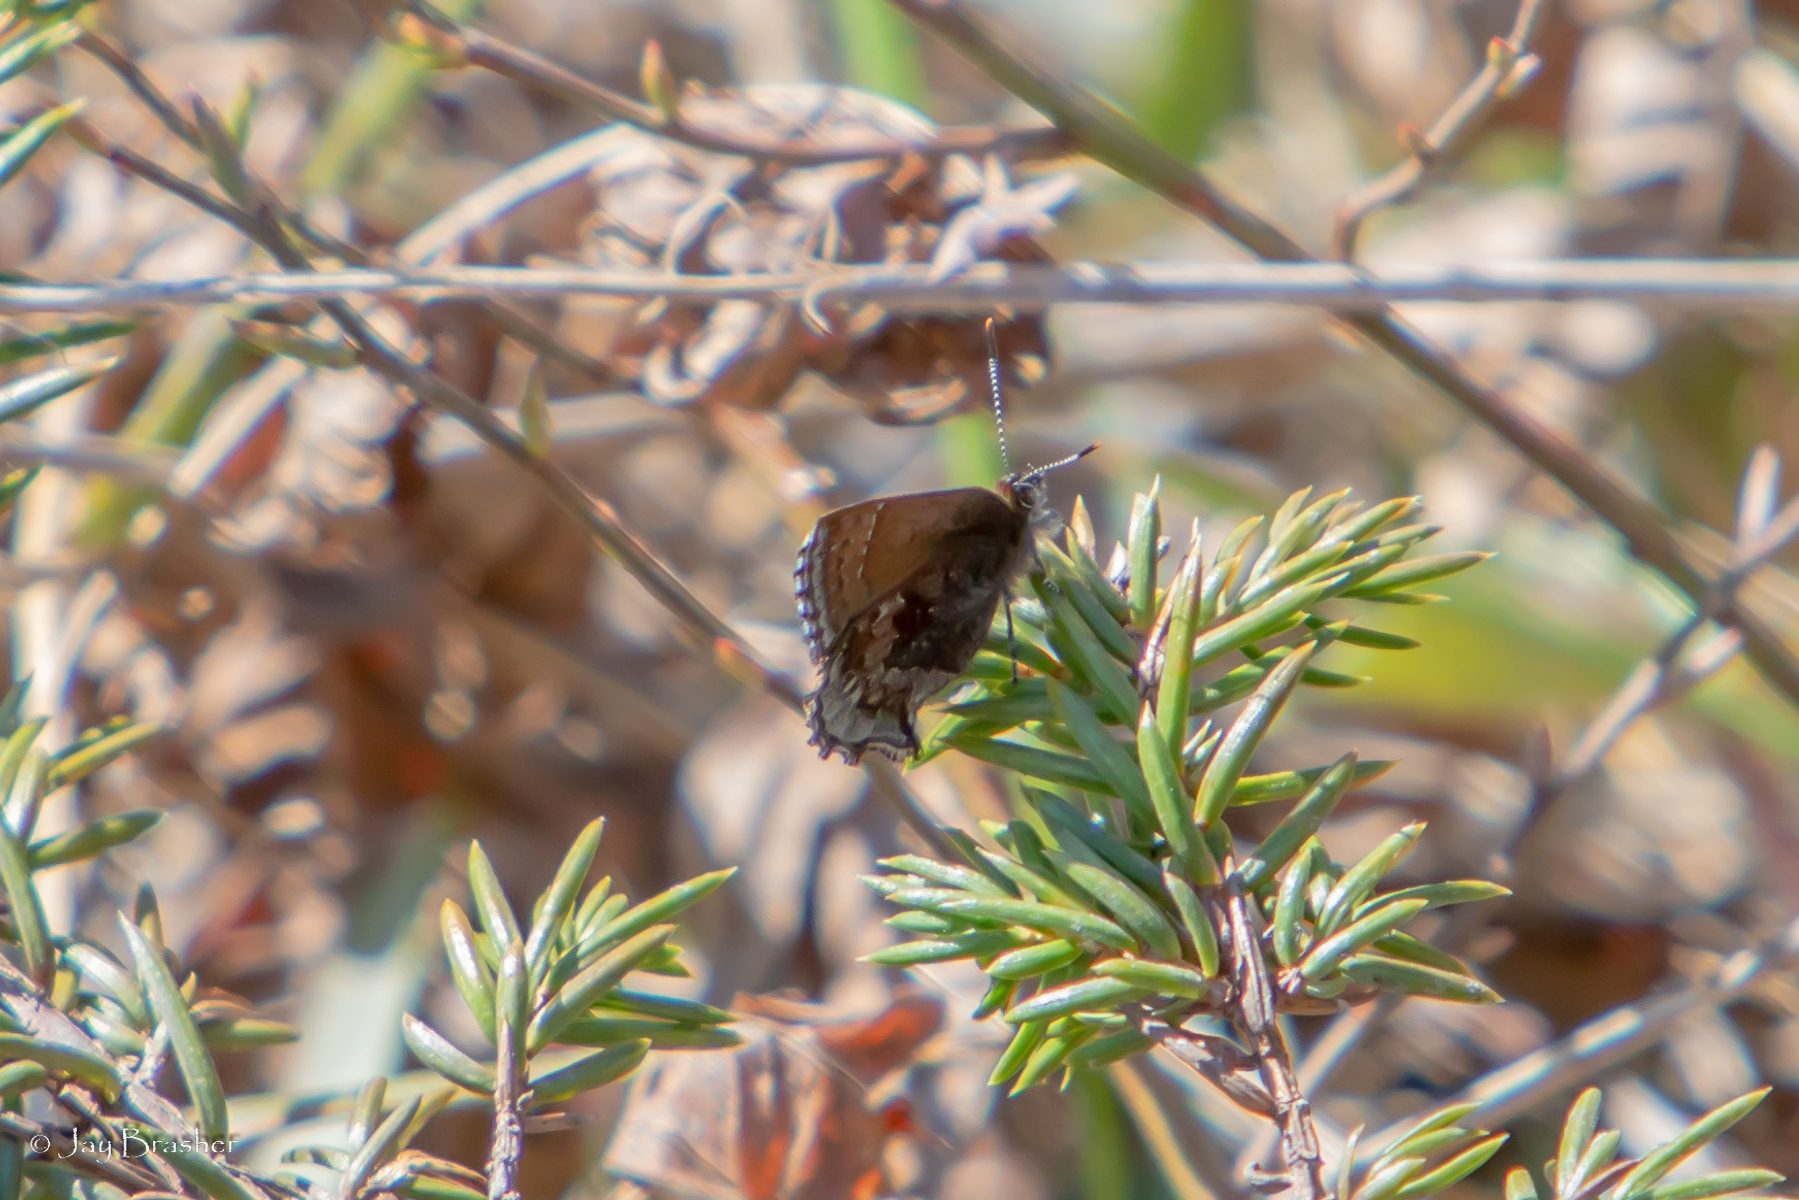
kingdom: Animalia
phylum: Arthropoda
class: Insecta
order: Lepidoptera
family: Lycaenidae
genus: Callophrys
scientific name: Callophrys polios
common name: Hoary elfin
